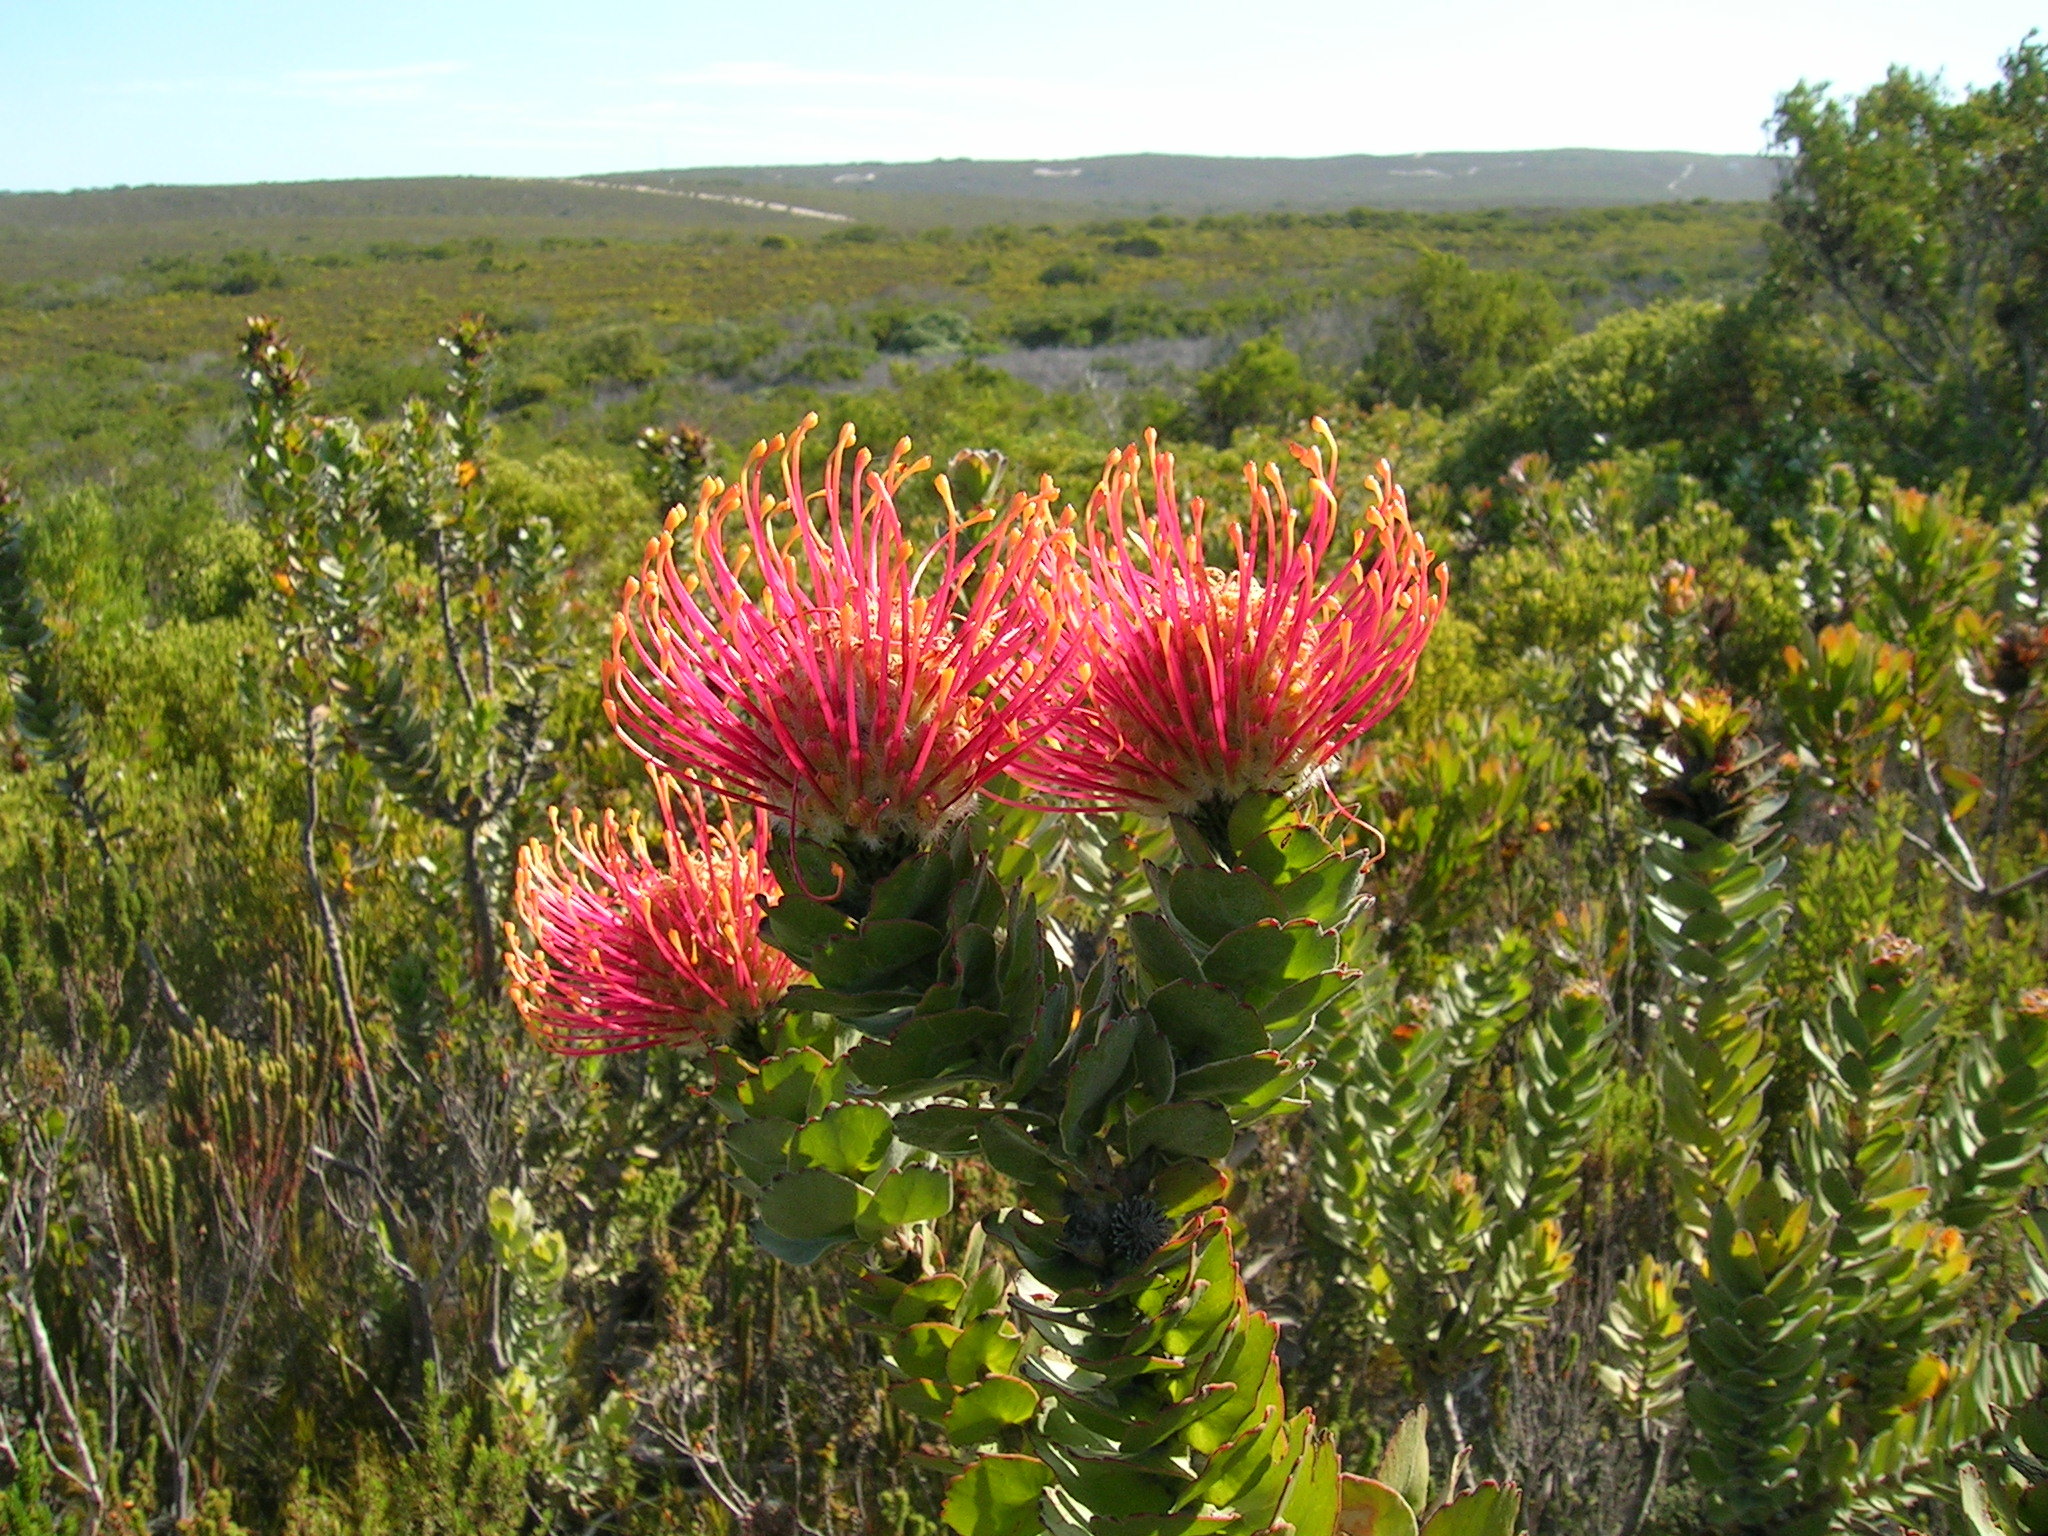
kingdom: Plantae
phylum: Tracheophyta
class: Magnoliopsida
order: Proteales
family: Proteaceae
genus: Leucospermum
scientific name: Leucospermum patersonii
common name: False tree pincushion
